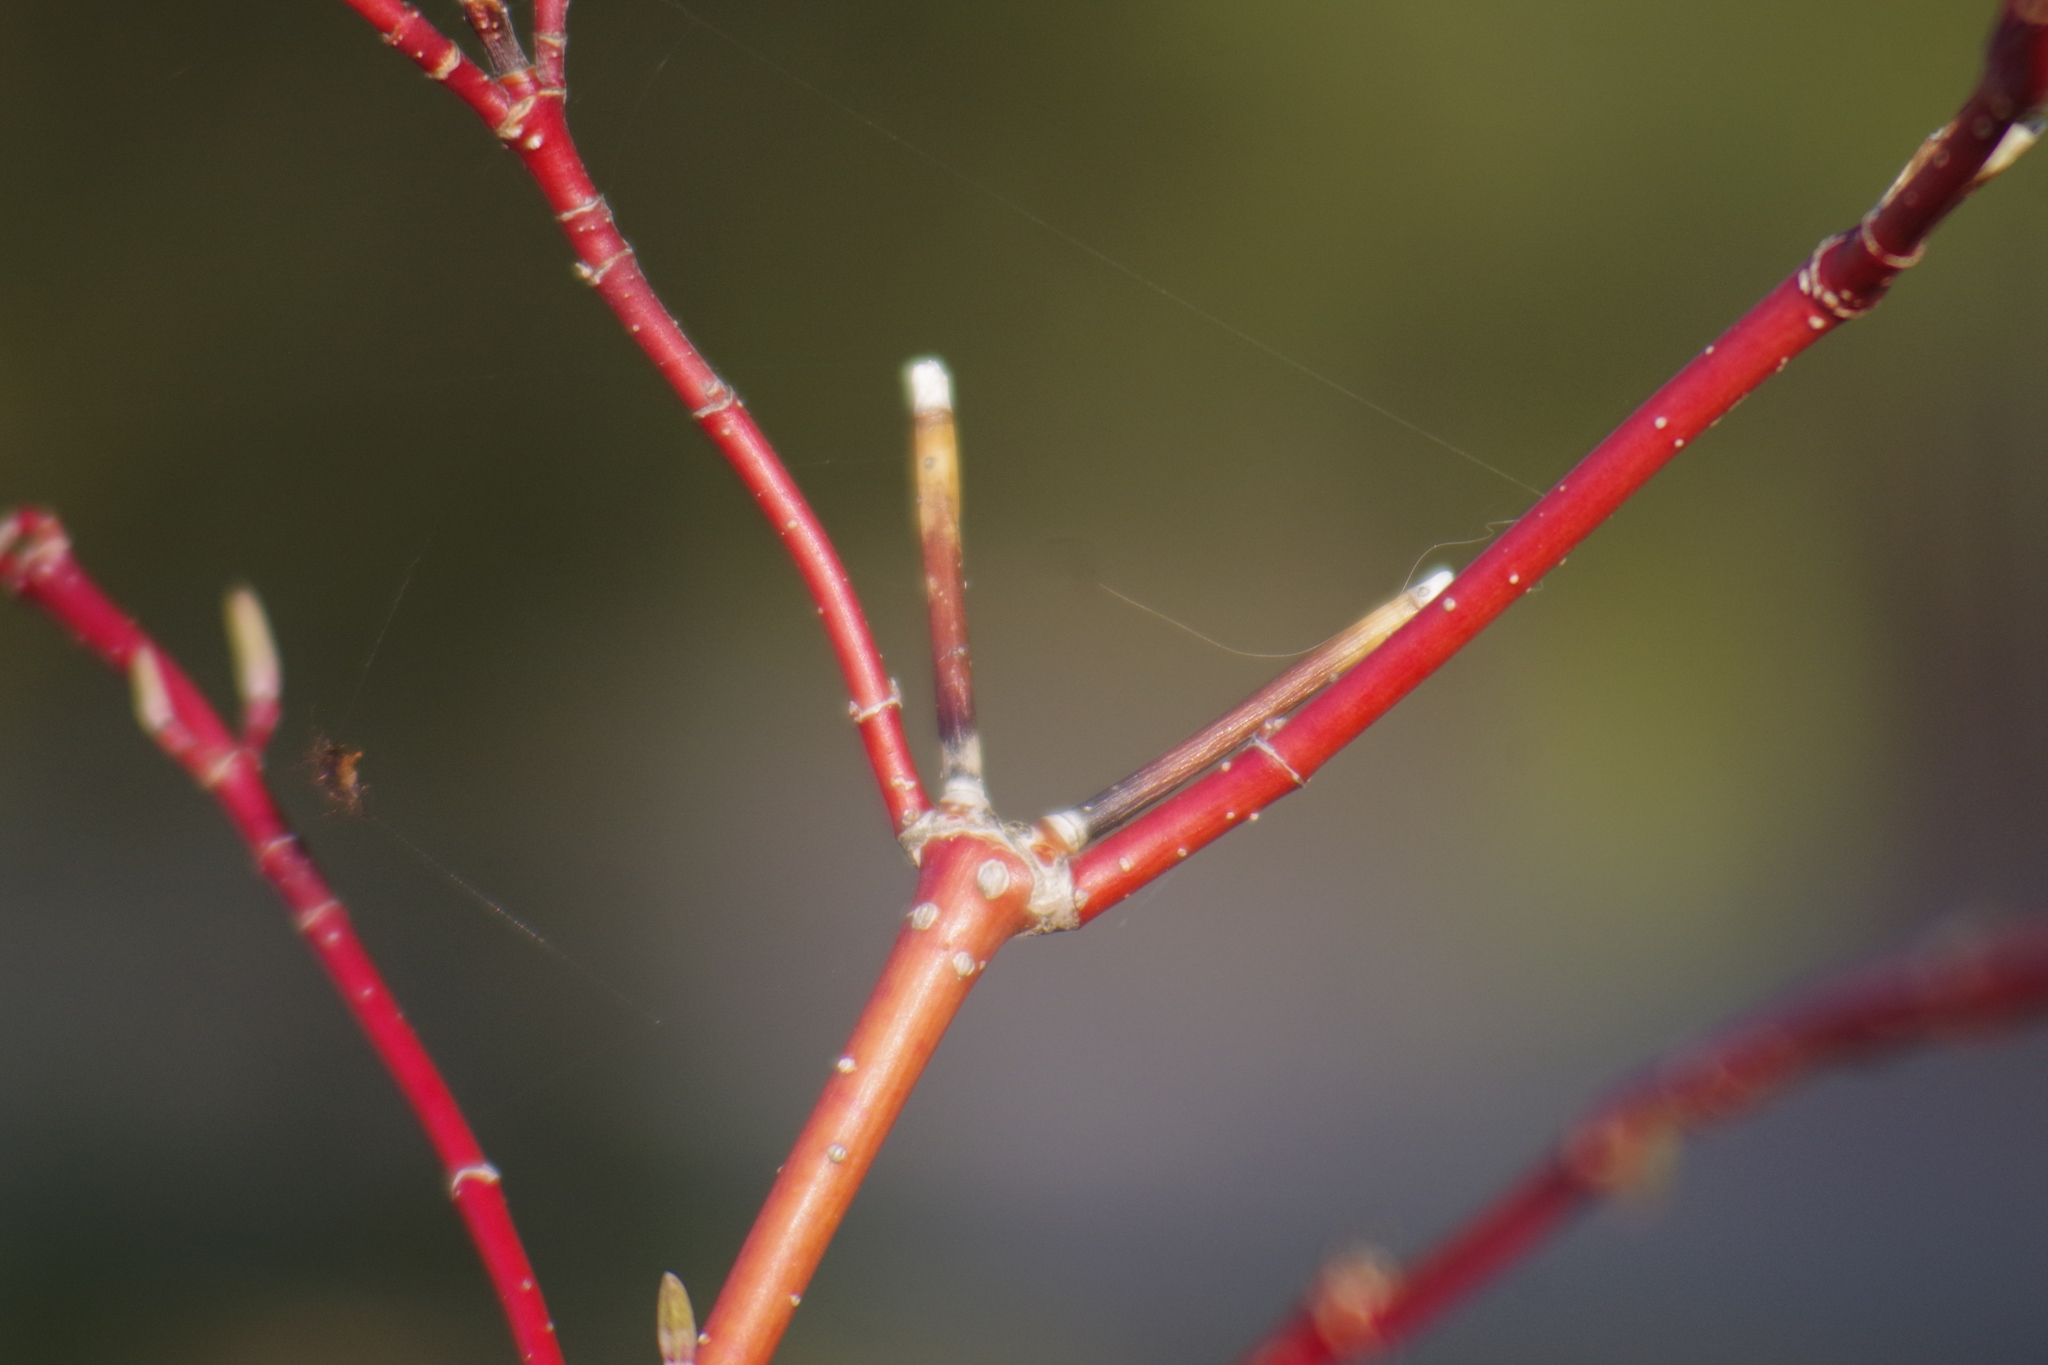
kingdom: Plantae
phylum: Tracheophyta
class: Magnoliopsida
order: Cornales
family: Cornaceae
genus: Cornus
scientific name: Cornus sericea
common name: Red-osier dogwood
